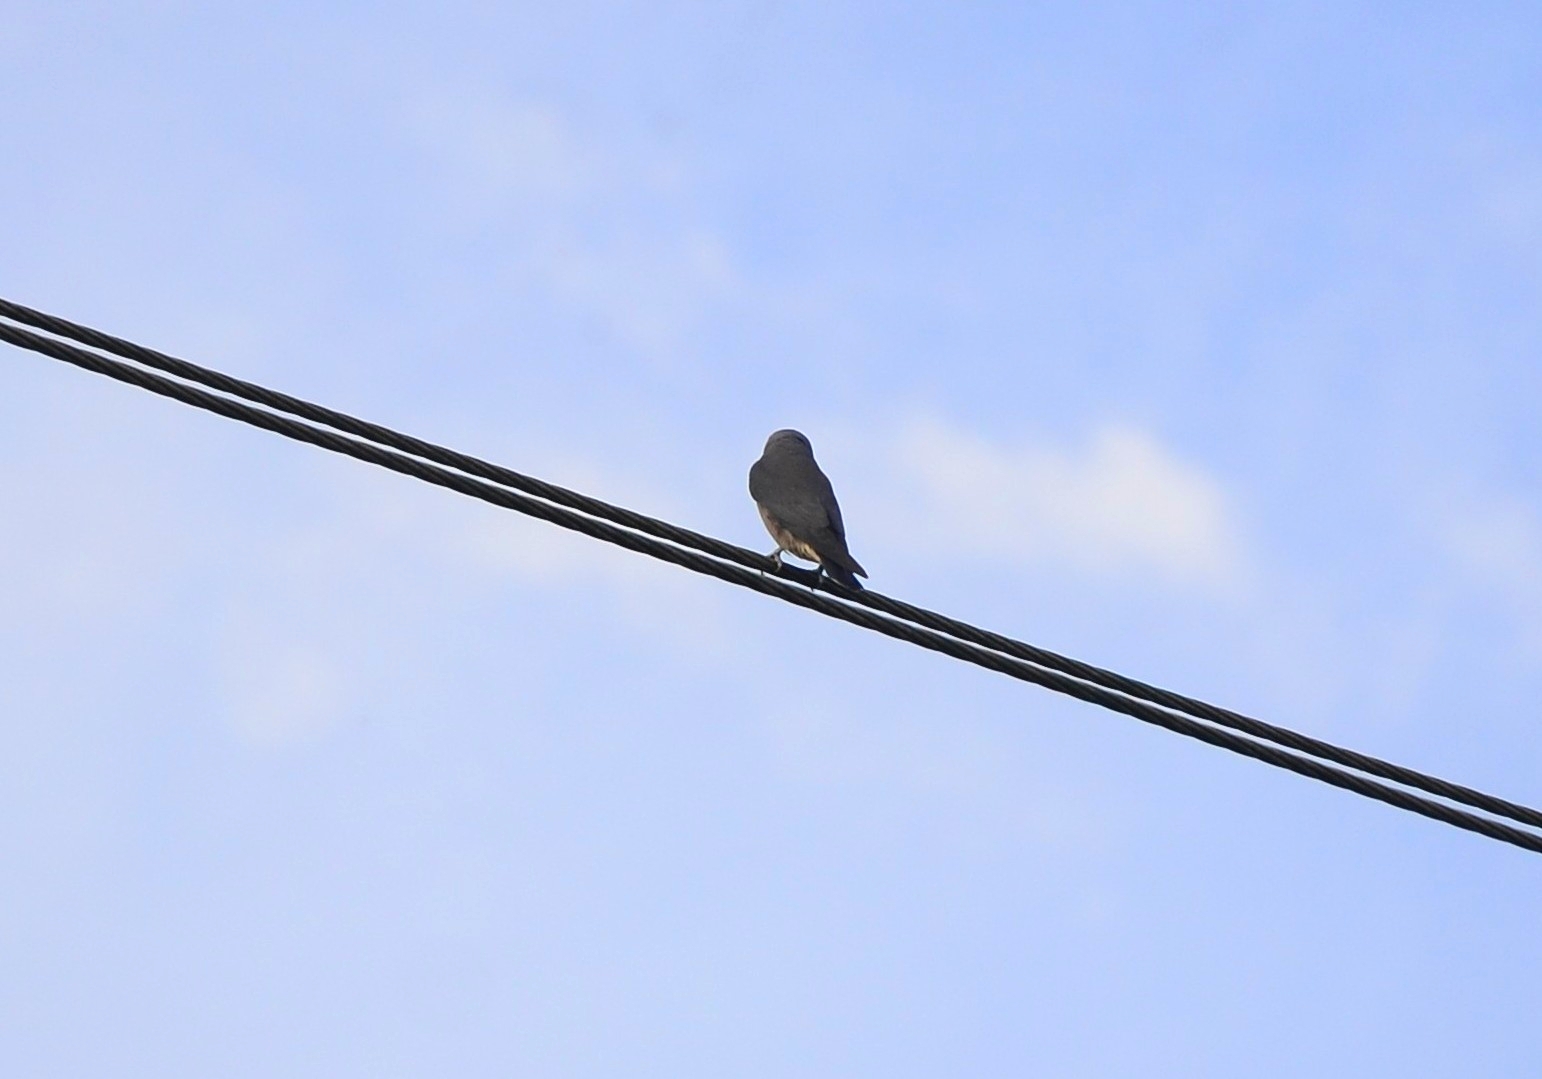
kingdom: Animalia
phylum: Chordata
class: Aves
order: Passeriformes
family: Artamidae
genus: Artamus
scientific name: Artamus fuscus
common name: Ashy woodswallow
